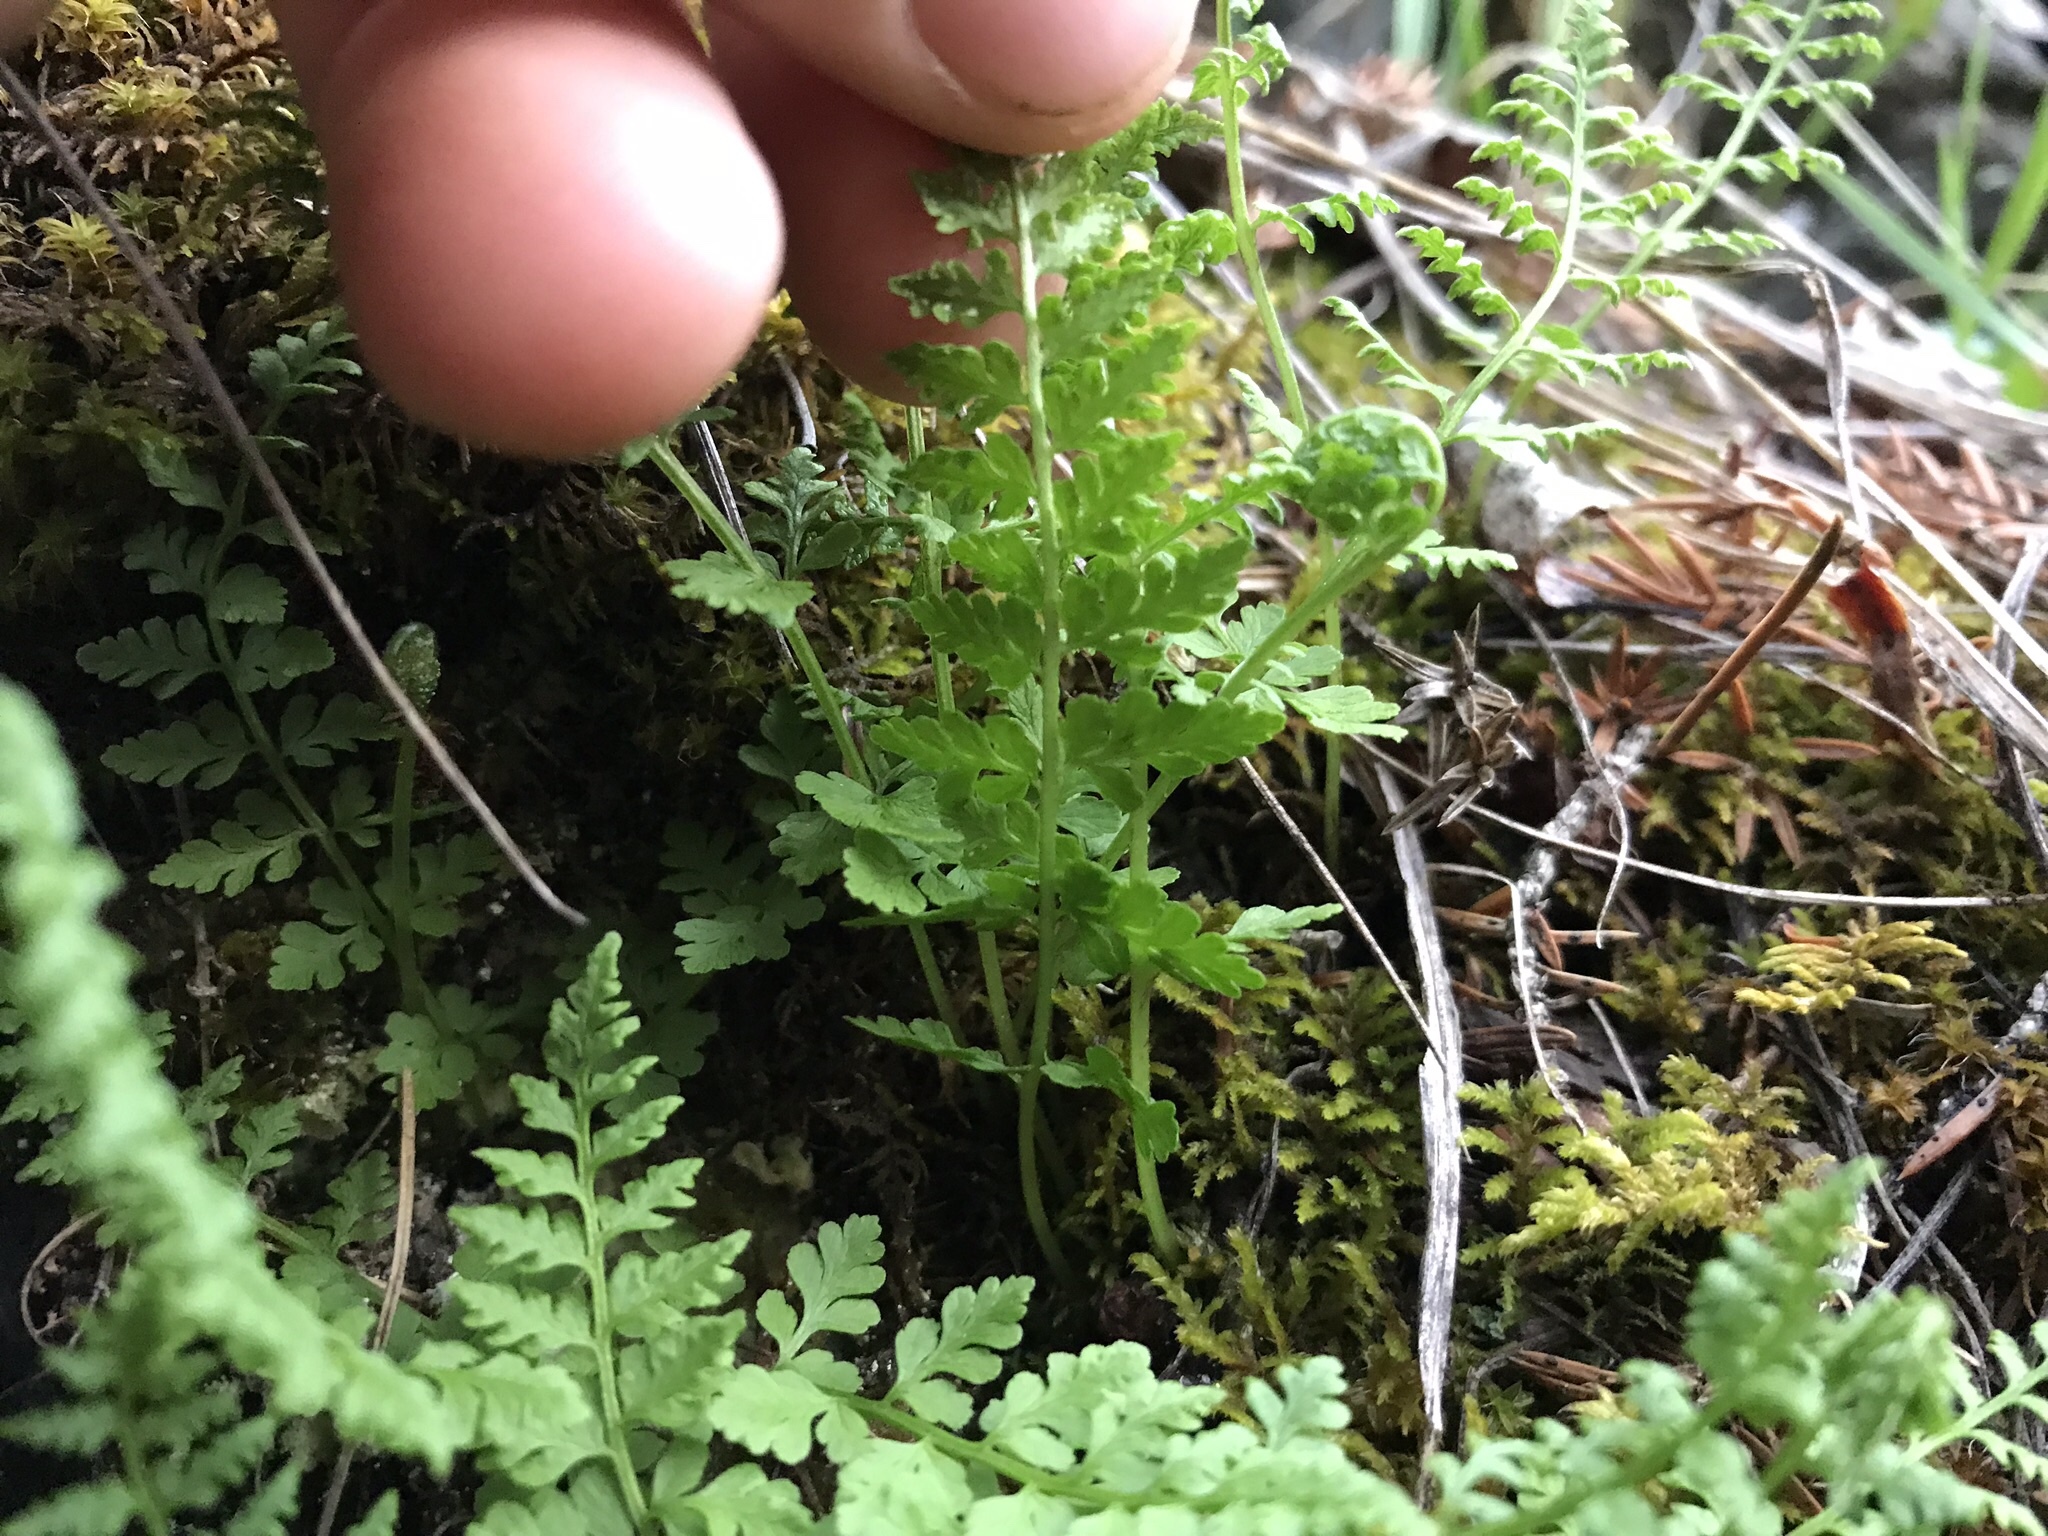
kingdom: Plantae
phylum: Tracheophyta
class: Polypodiopsida
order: Polypodiales
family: Cystopteridaceae
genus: Cystopteris
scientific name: Cystopteris fragilis
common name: Brittle bladder fern
